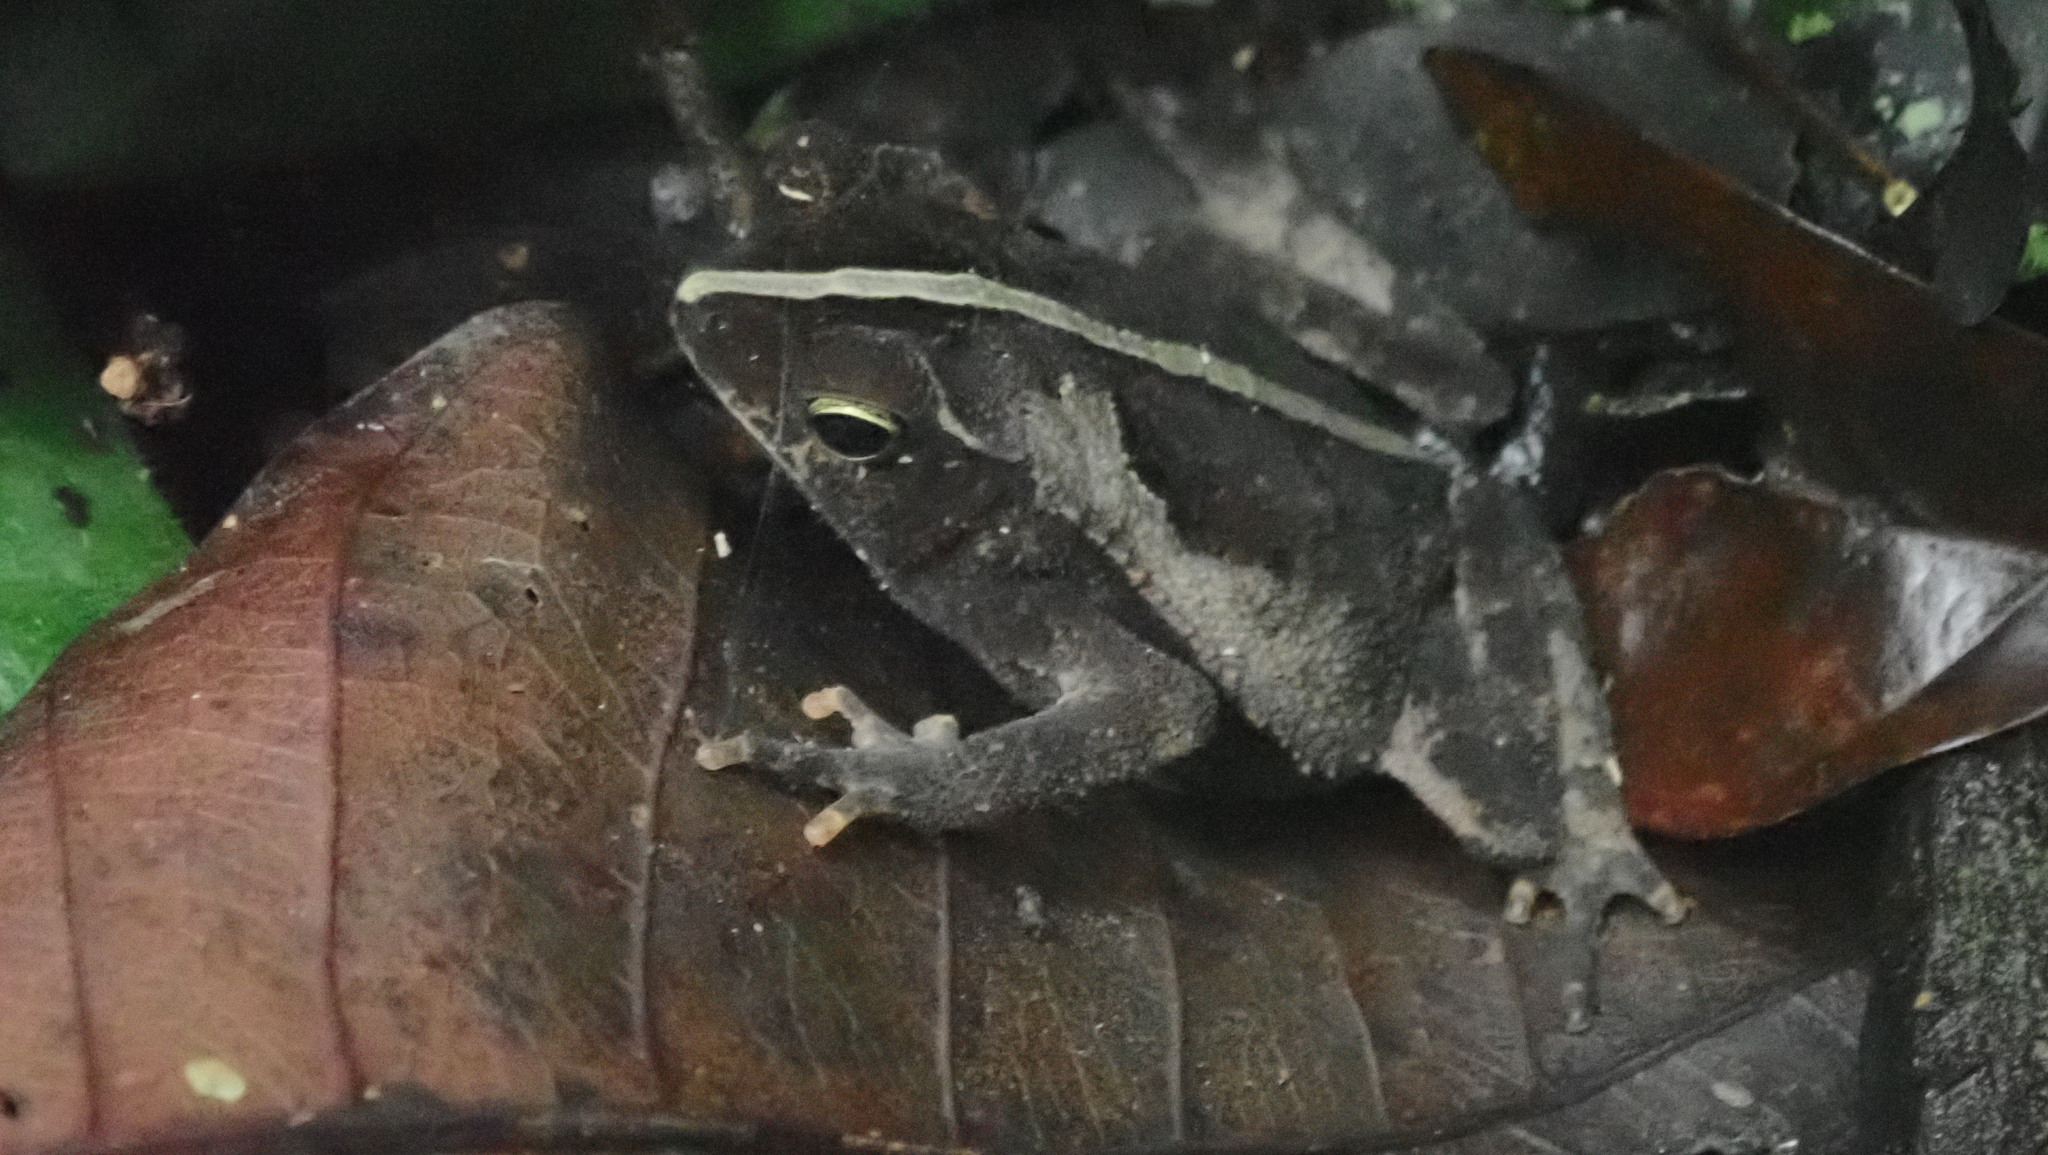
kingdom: Animalia
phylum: Chordata
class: Amphibia
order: Anura
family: Bufonidae
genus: Rhinella
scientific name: Rhinella alata
